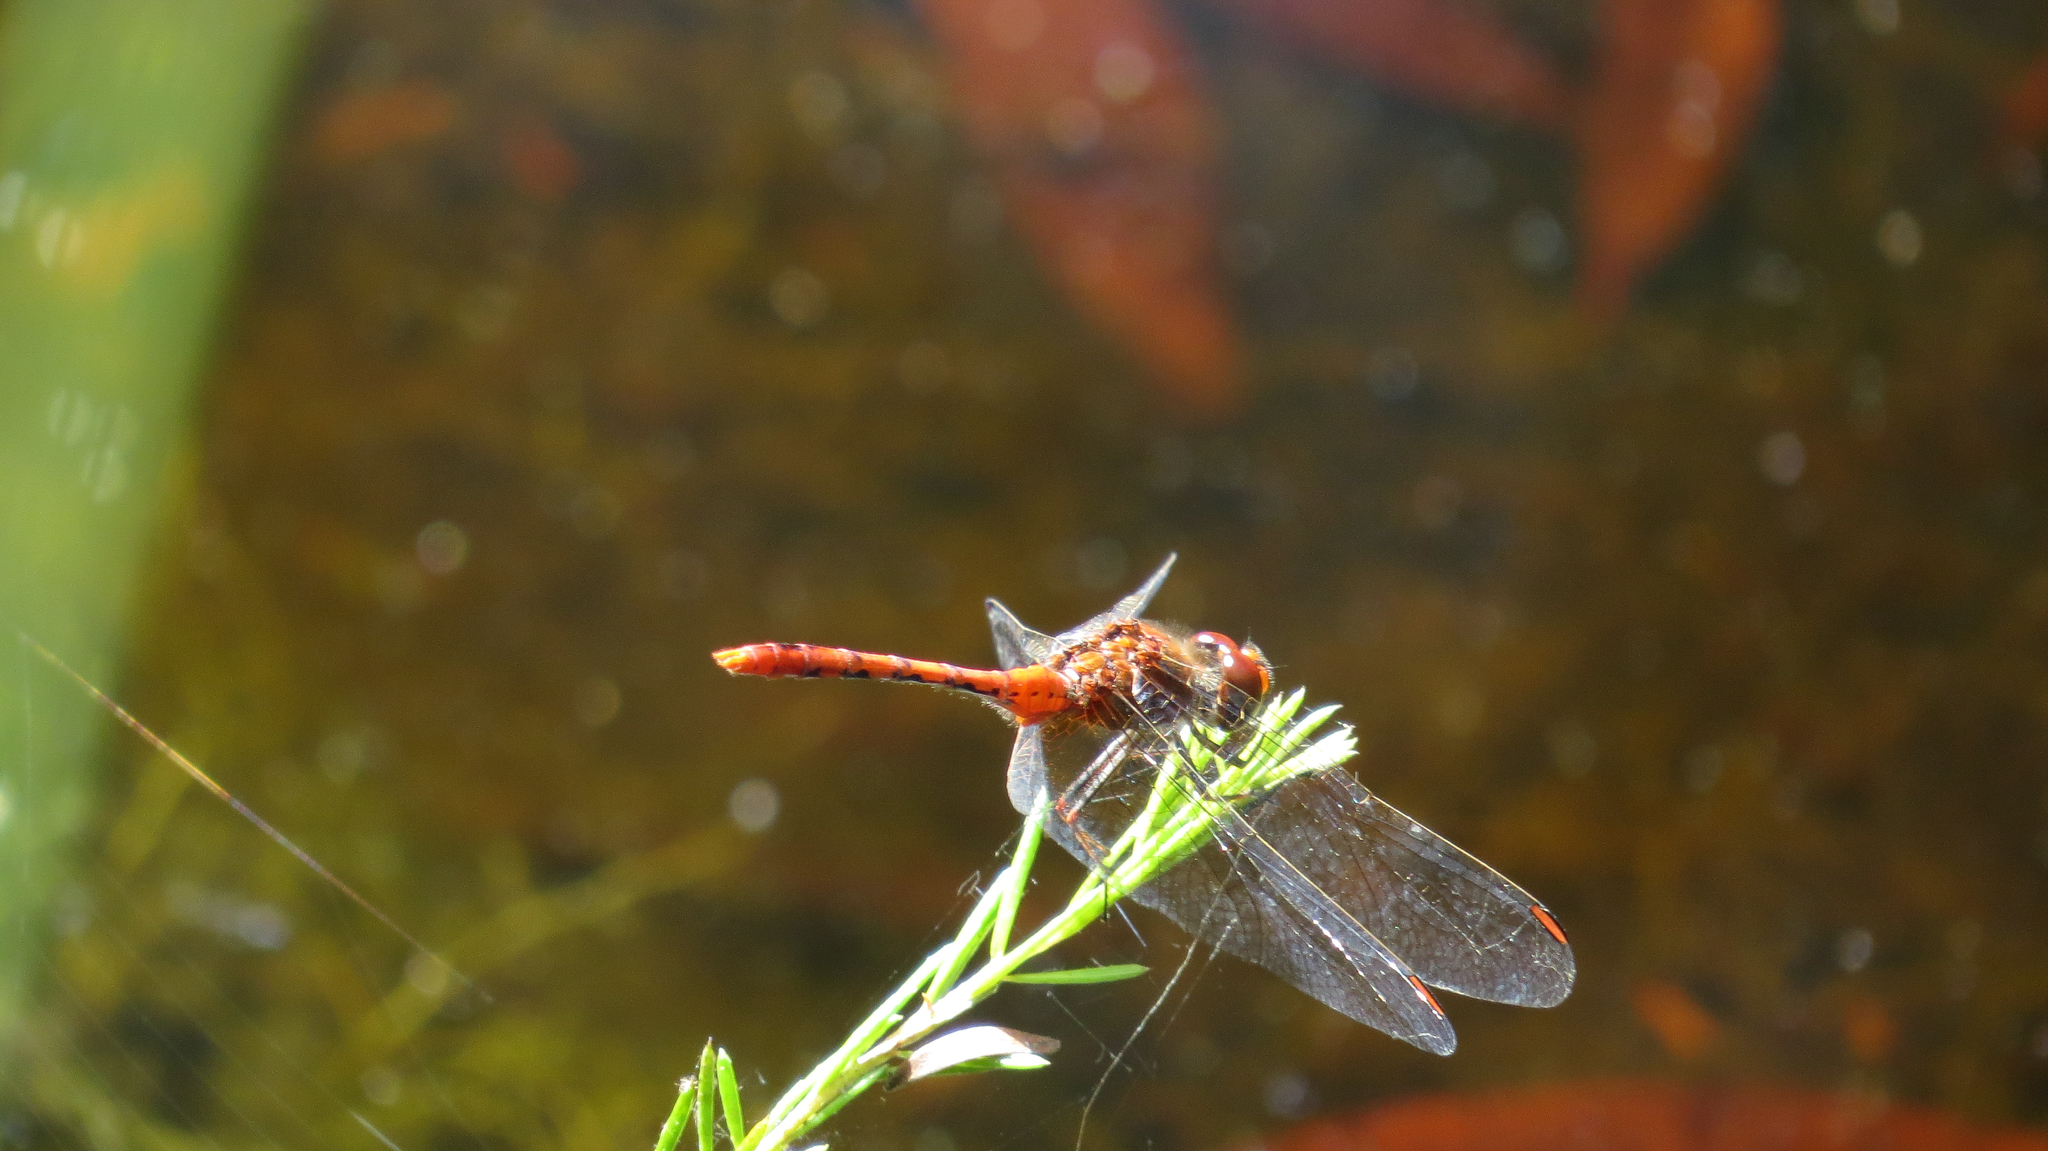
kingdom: Animalia
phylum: Arthropoda
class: Insecta
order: Odonata
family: Libellulidae
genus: Diplacodes
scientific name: Diplacodes bipunctata
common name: Red percher dragonfly
